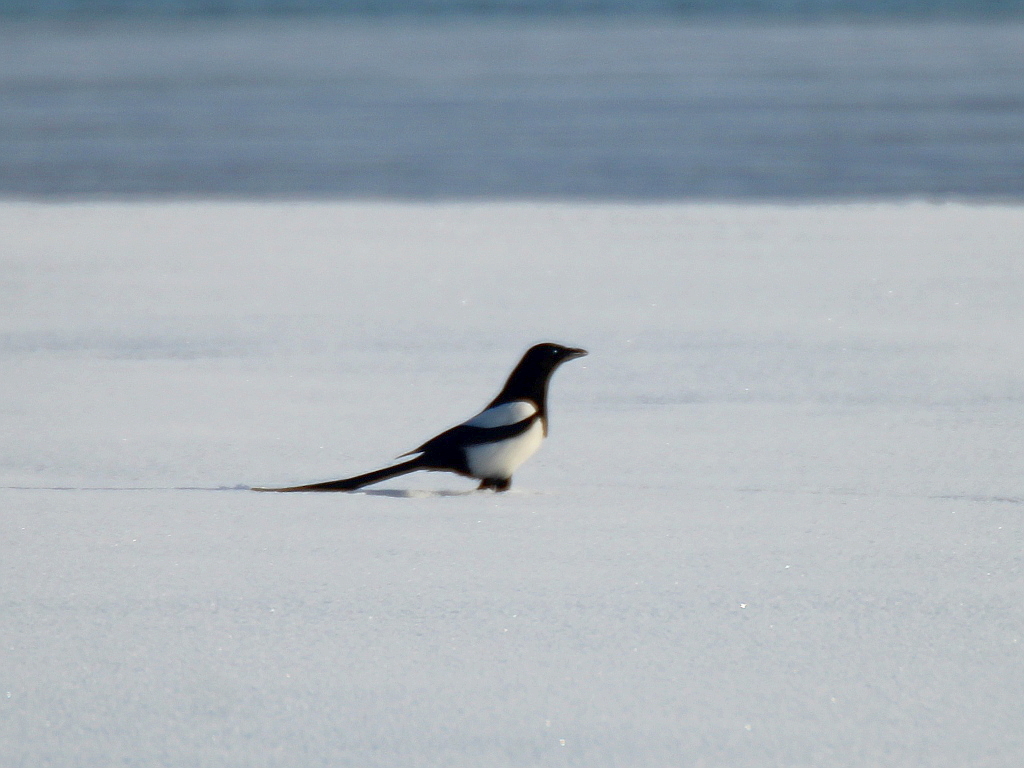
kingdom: Animalia
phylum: Chordata
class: Aves
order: Passeriformes
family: Corvidae
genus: Pica
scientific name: Pica pica
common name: Eurasian magpie
